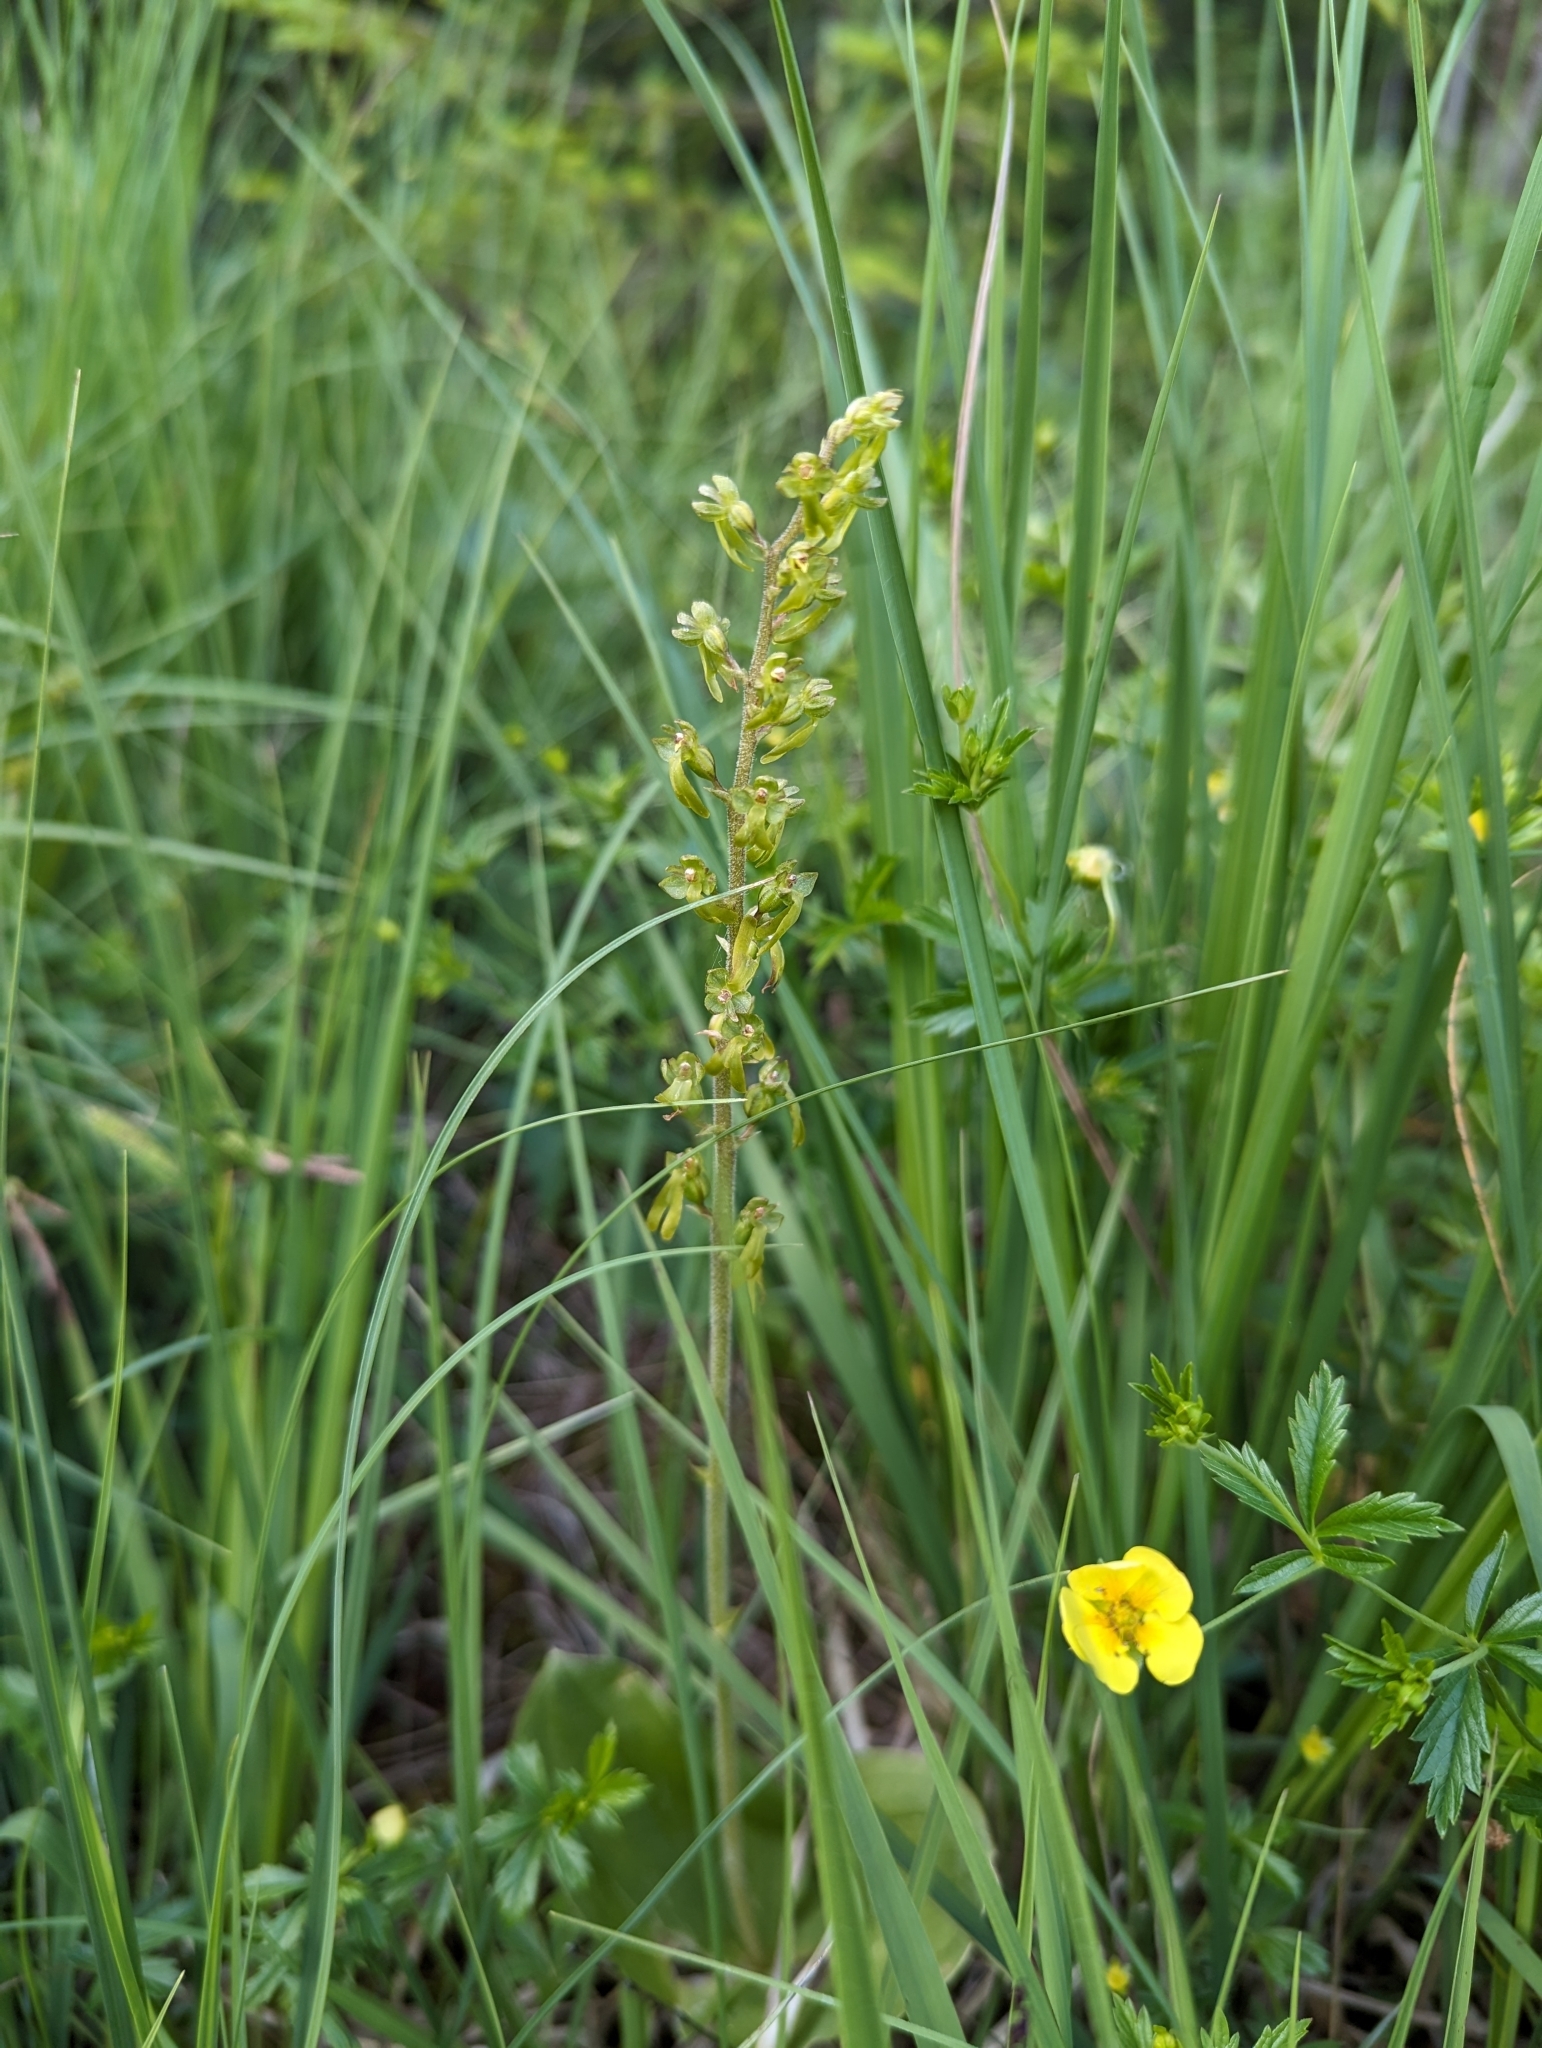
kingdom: Plantae
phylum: Tracheophyta
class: Liliopsida
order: Asparagales
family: Orchidaceae
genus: Neottia
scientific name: Neottia ovata
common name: Common twayblade
